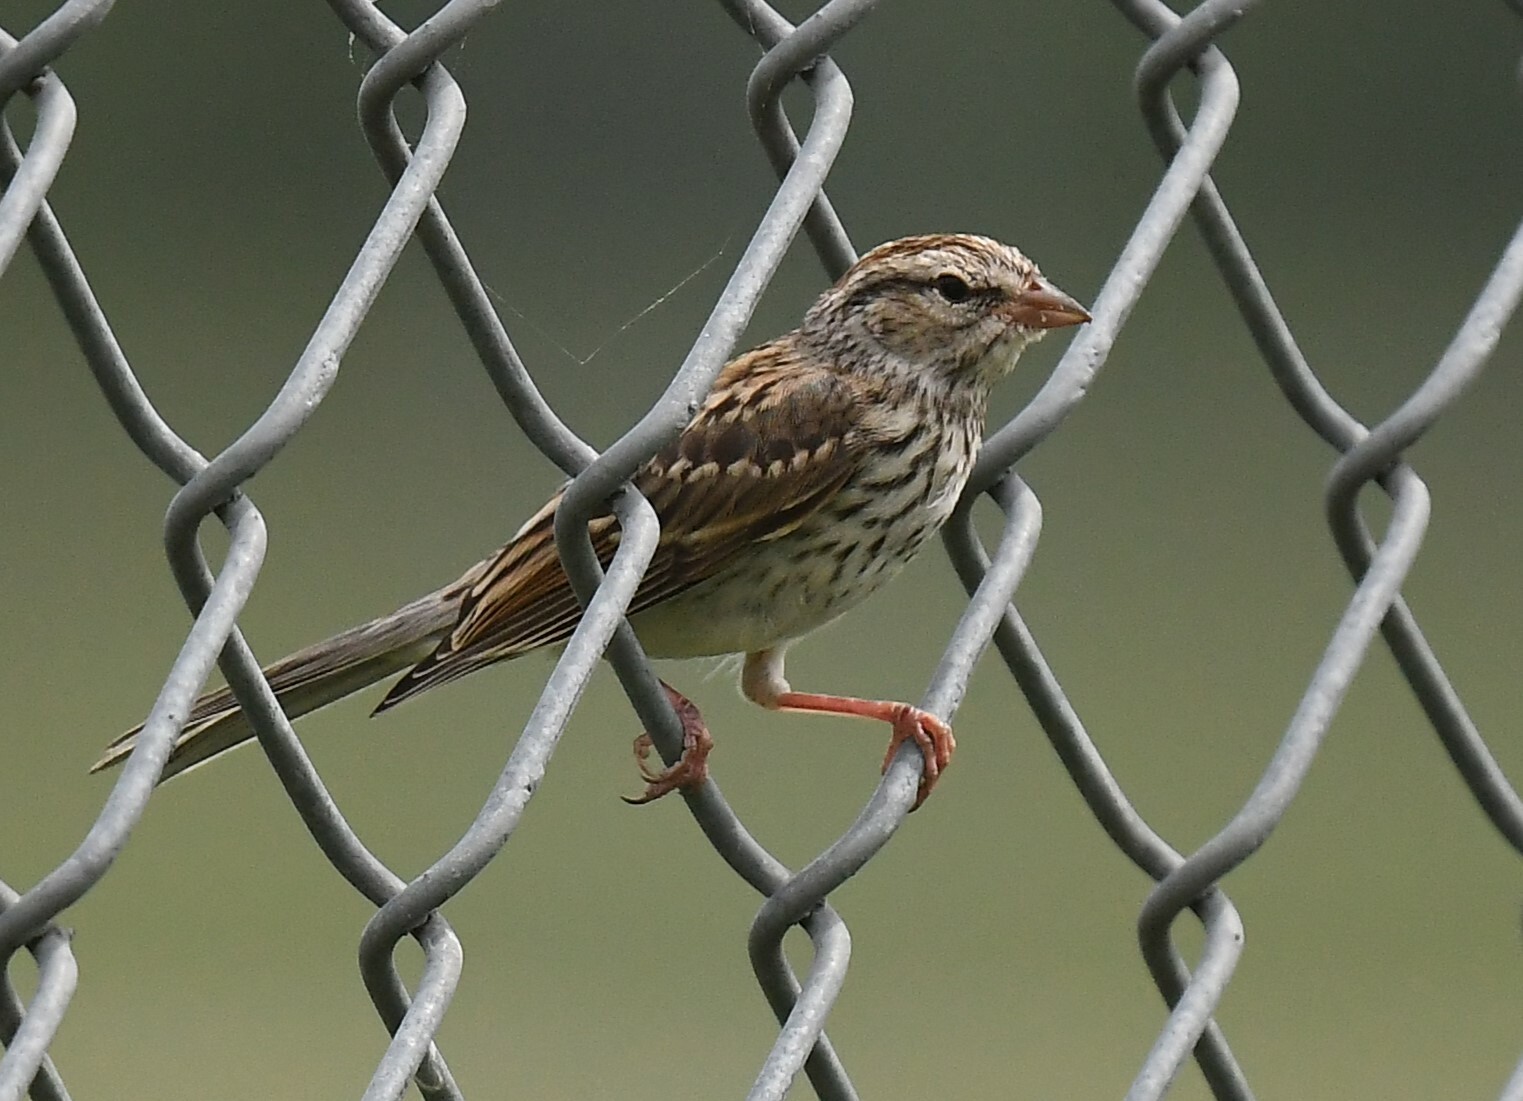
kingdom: Animalia
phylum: Chordata
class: Aves
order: Passeriformes
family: Passerellidae
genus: Spizella
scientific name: Spizella passerina
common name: Chipping sparrow
